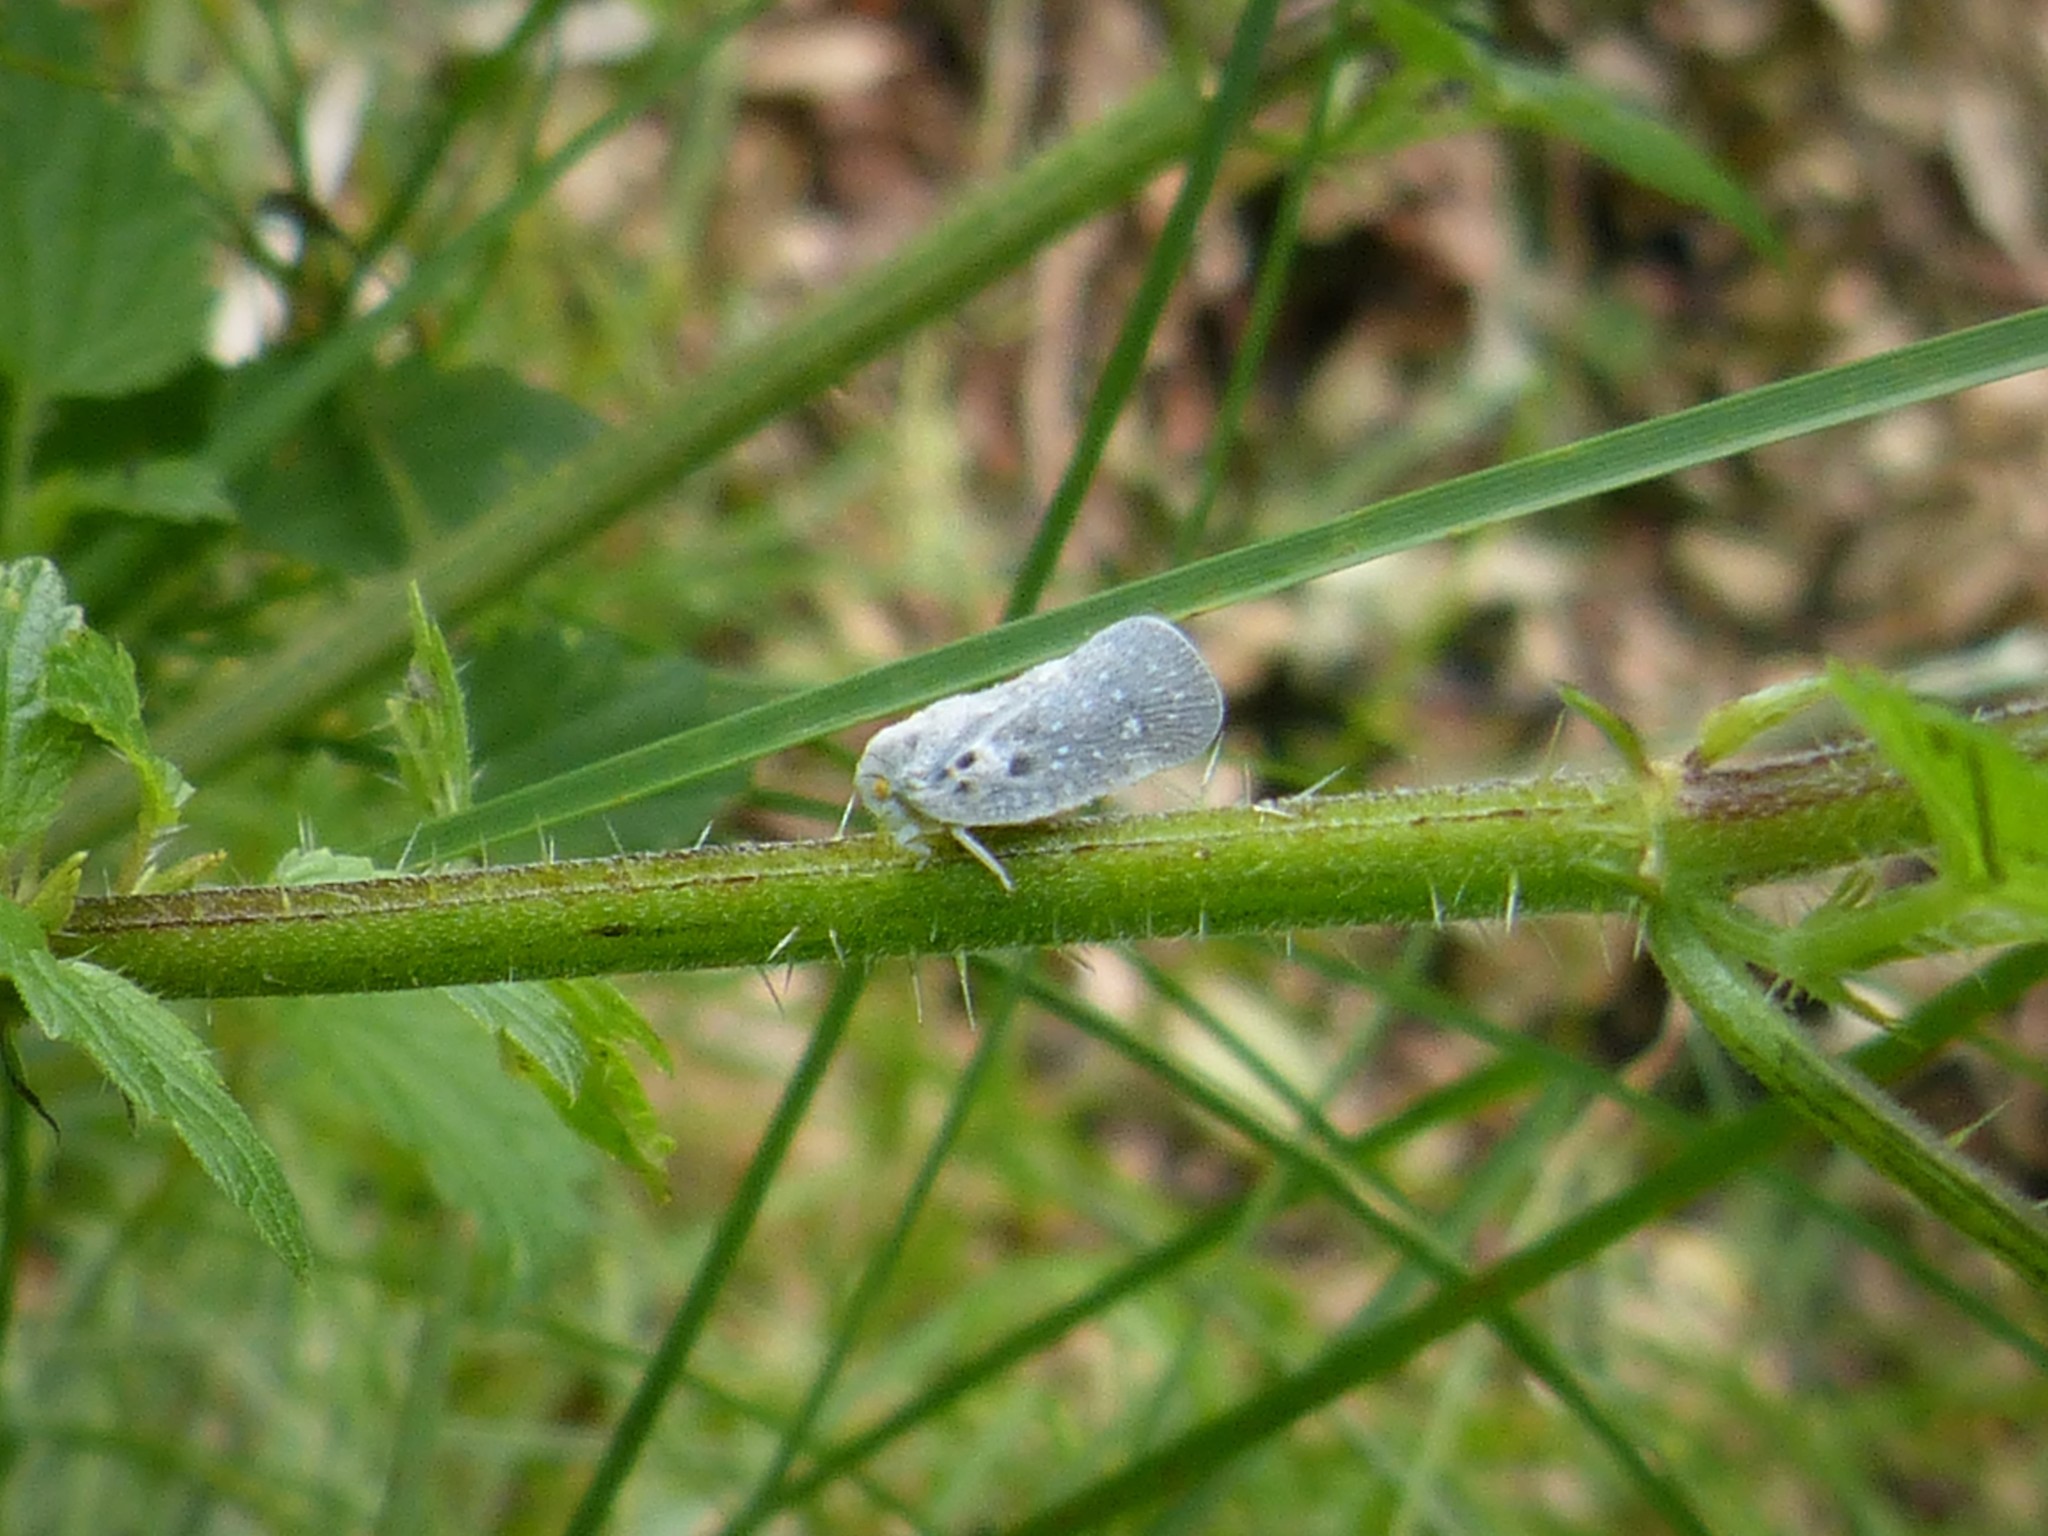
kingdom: Animalia
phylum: Arthropoda
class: Insecta
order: Hemiptera
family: Flatidae
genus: Metcalfa
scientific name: Metcalfa pruinosa
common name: Citrus flatid planthopper
